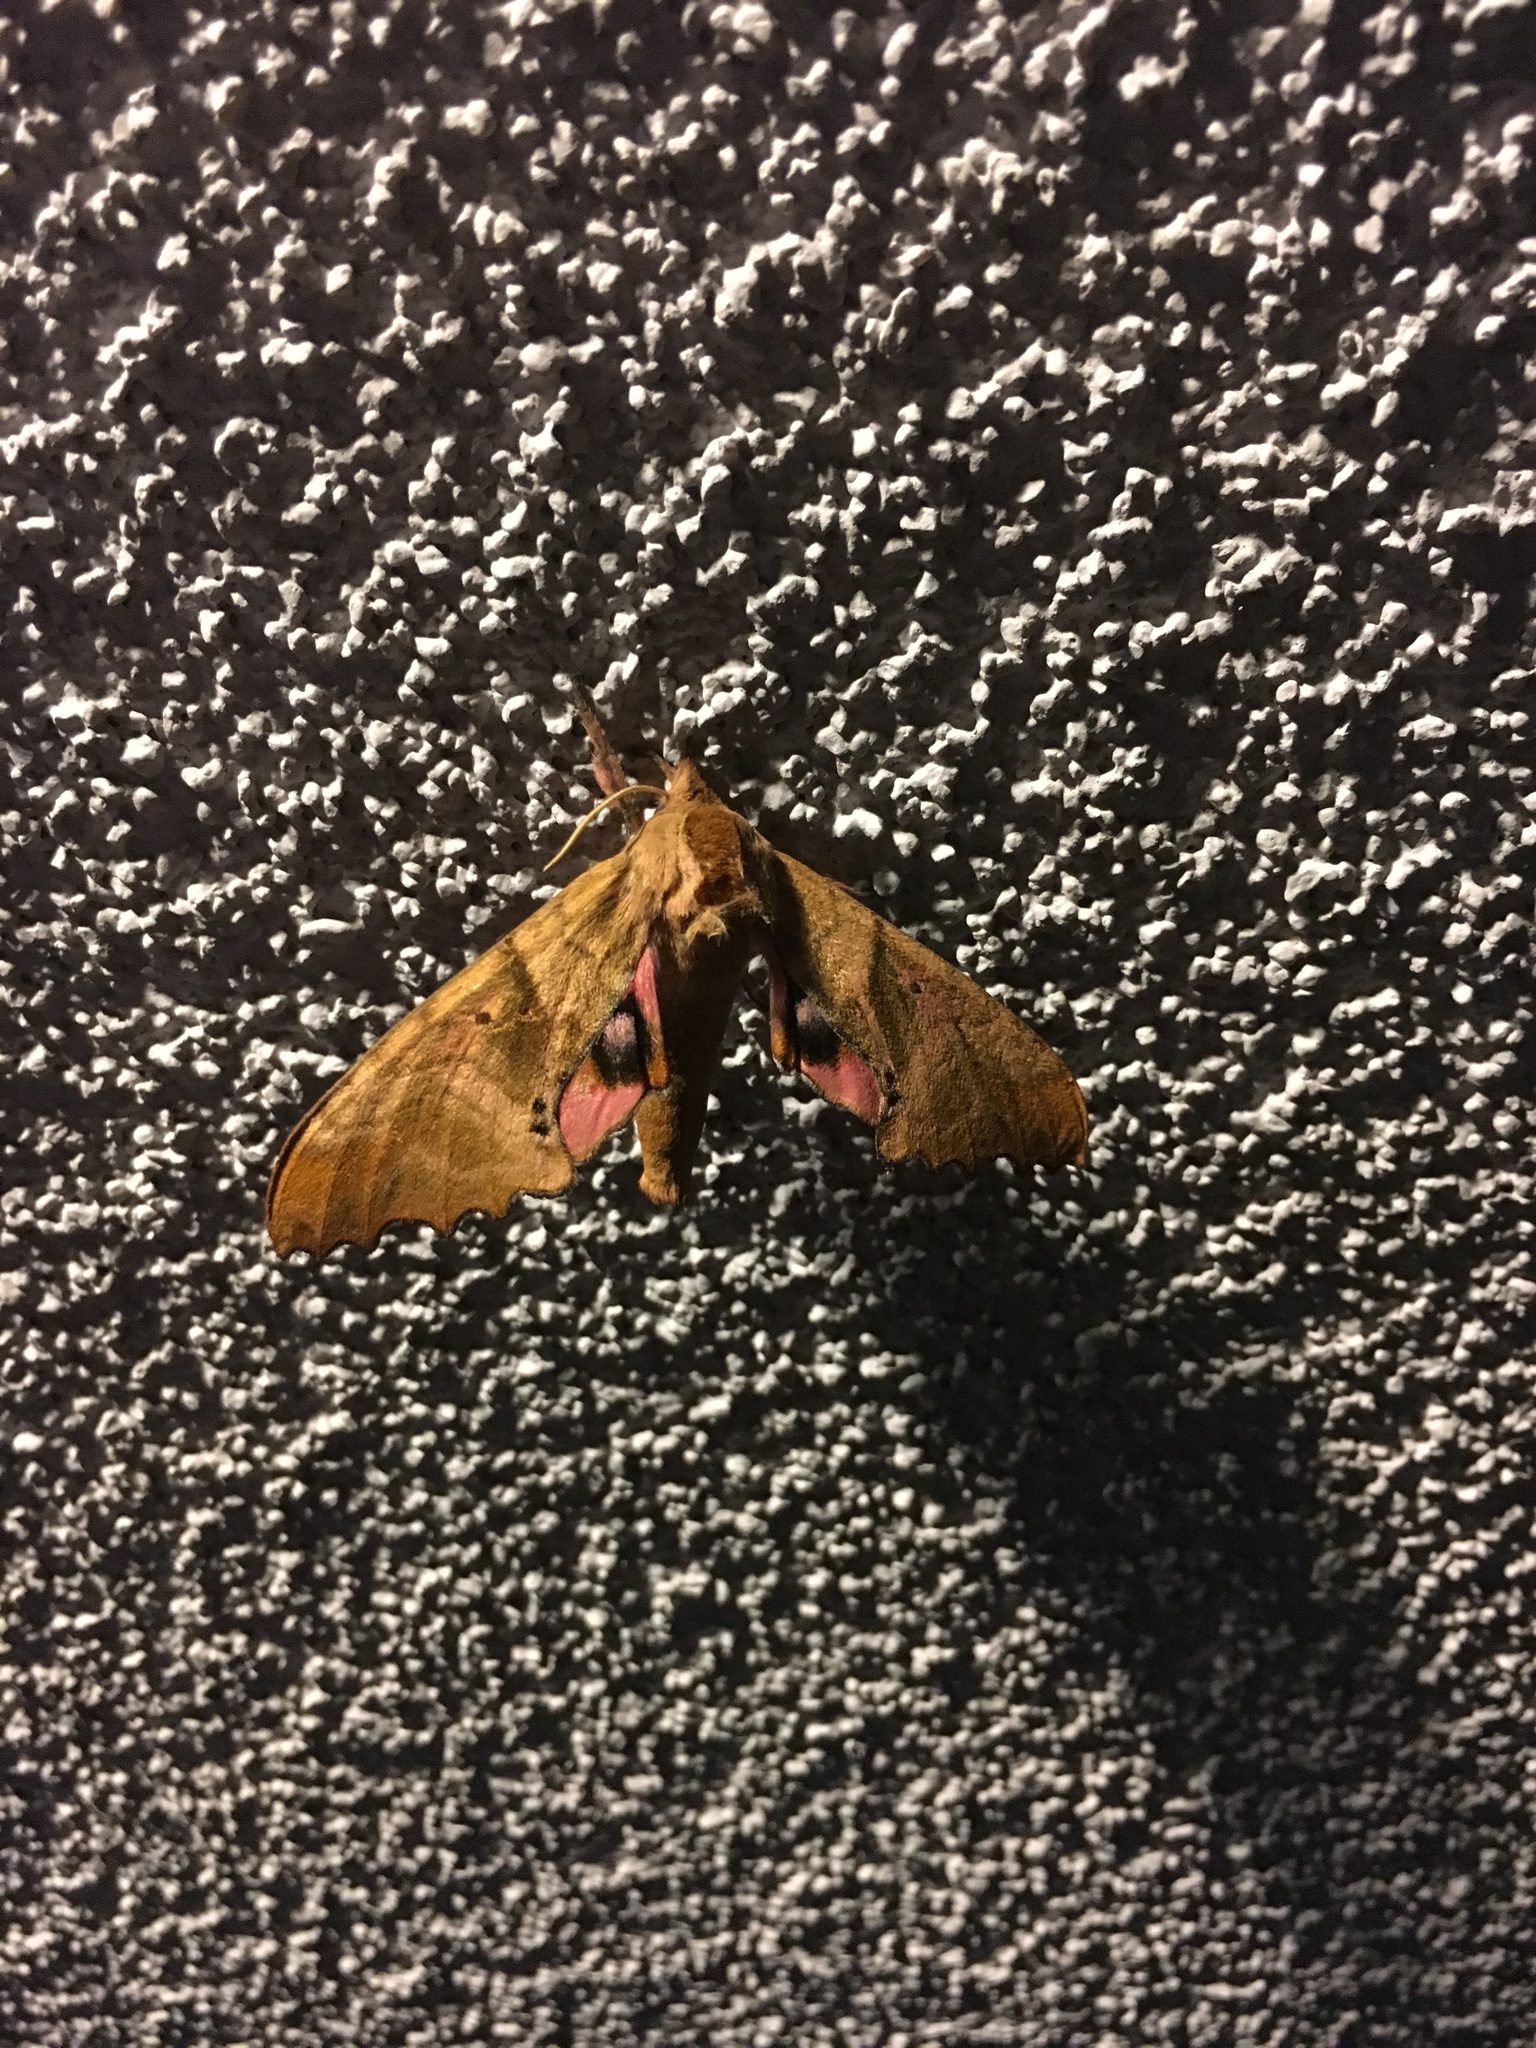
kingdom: Animalia
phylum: Arthropoda
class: Insecta
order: Lepidoptera
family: Sphingidae
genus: Paonias
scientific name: Paonias excaecata
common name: Blind-eyed sphinx
